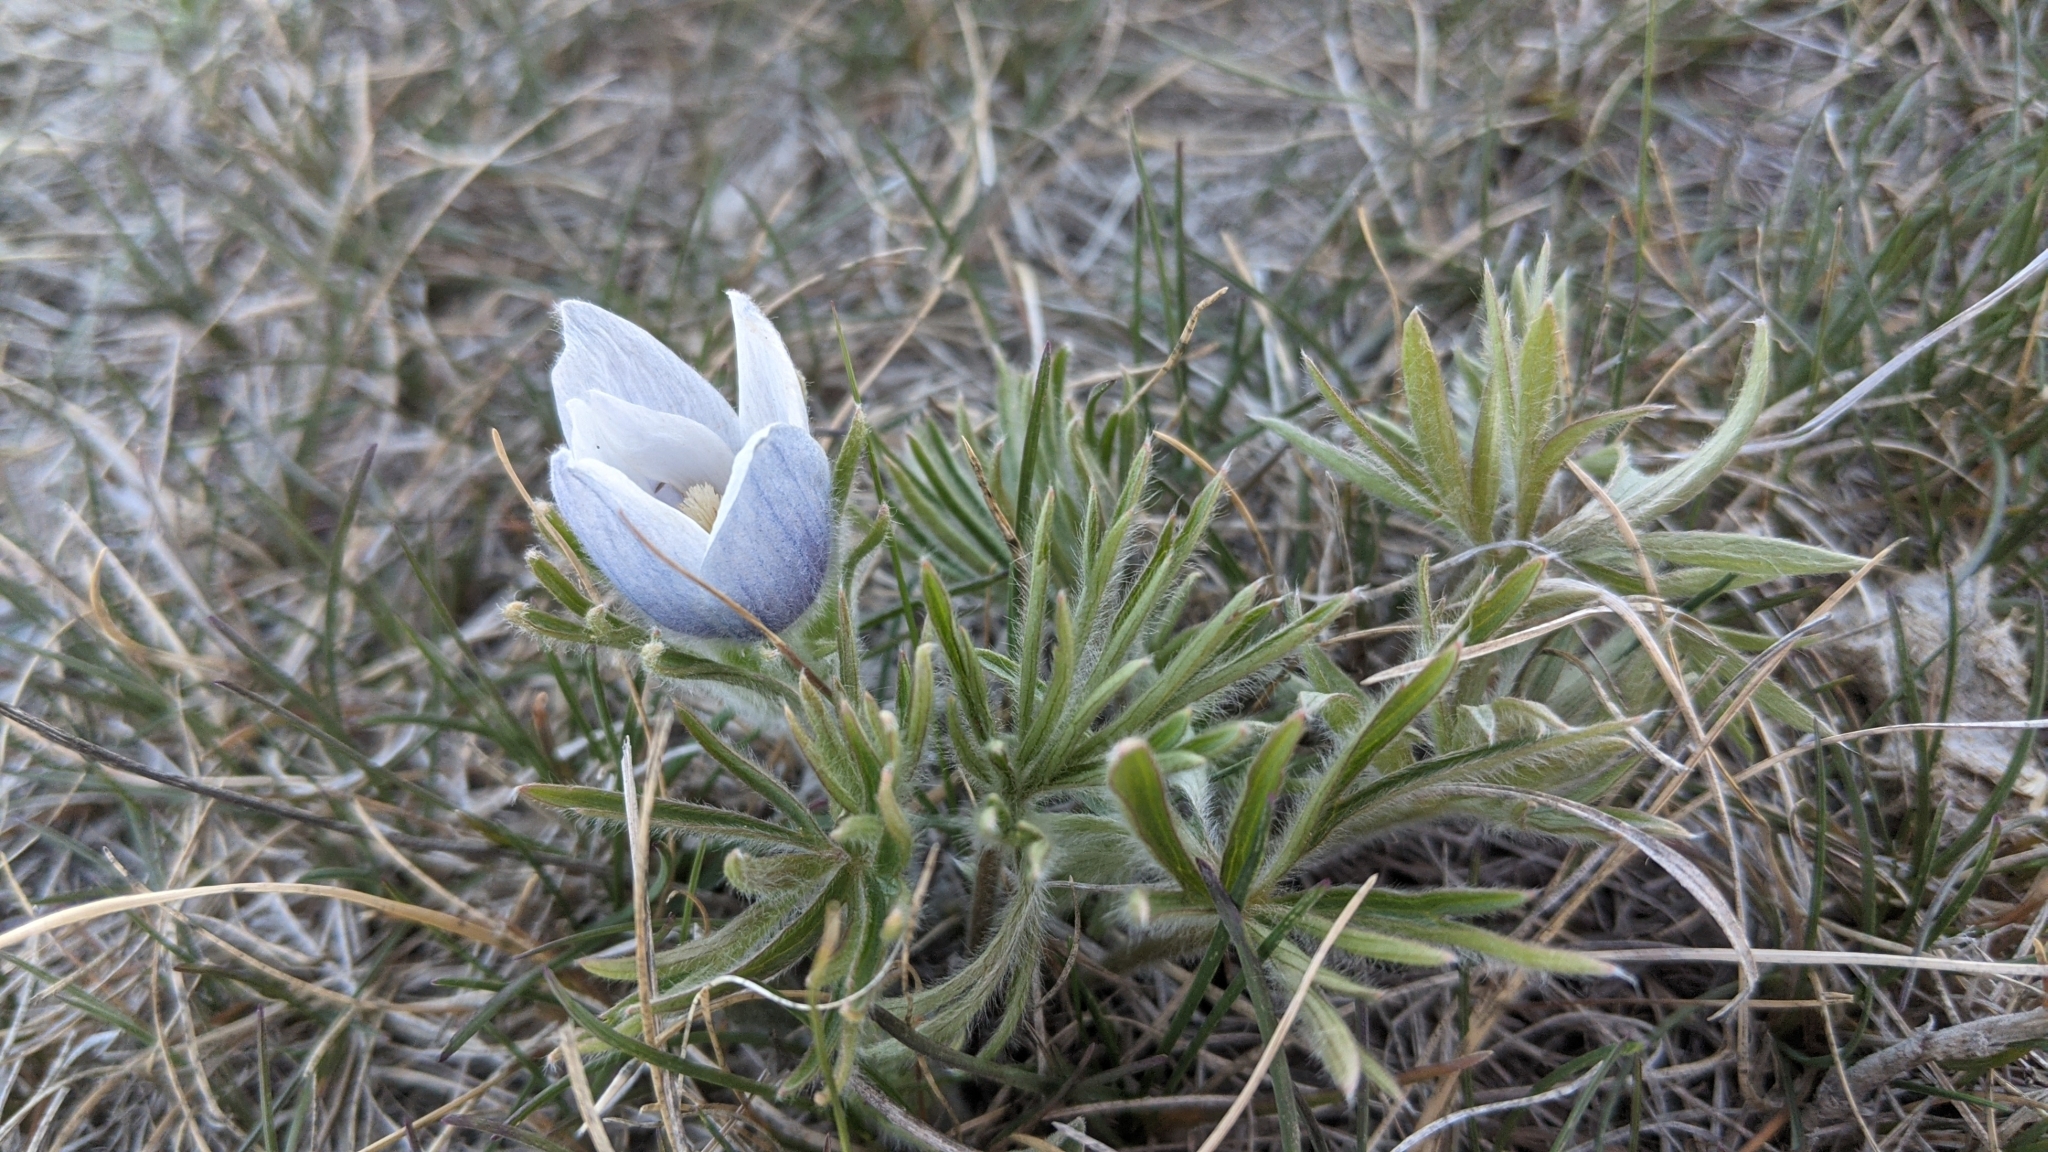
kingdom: Plantae
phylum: Tracheophyta
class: Magnoliopsida
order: Ranunculales
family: Ranunculaceae
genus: Pulsatilla
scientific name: Pulsatilla nuttalliana
